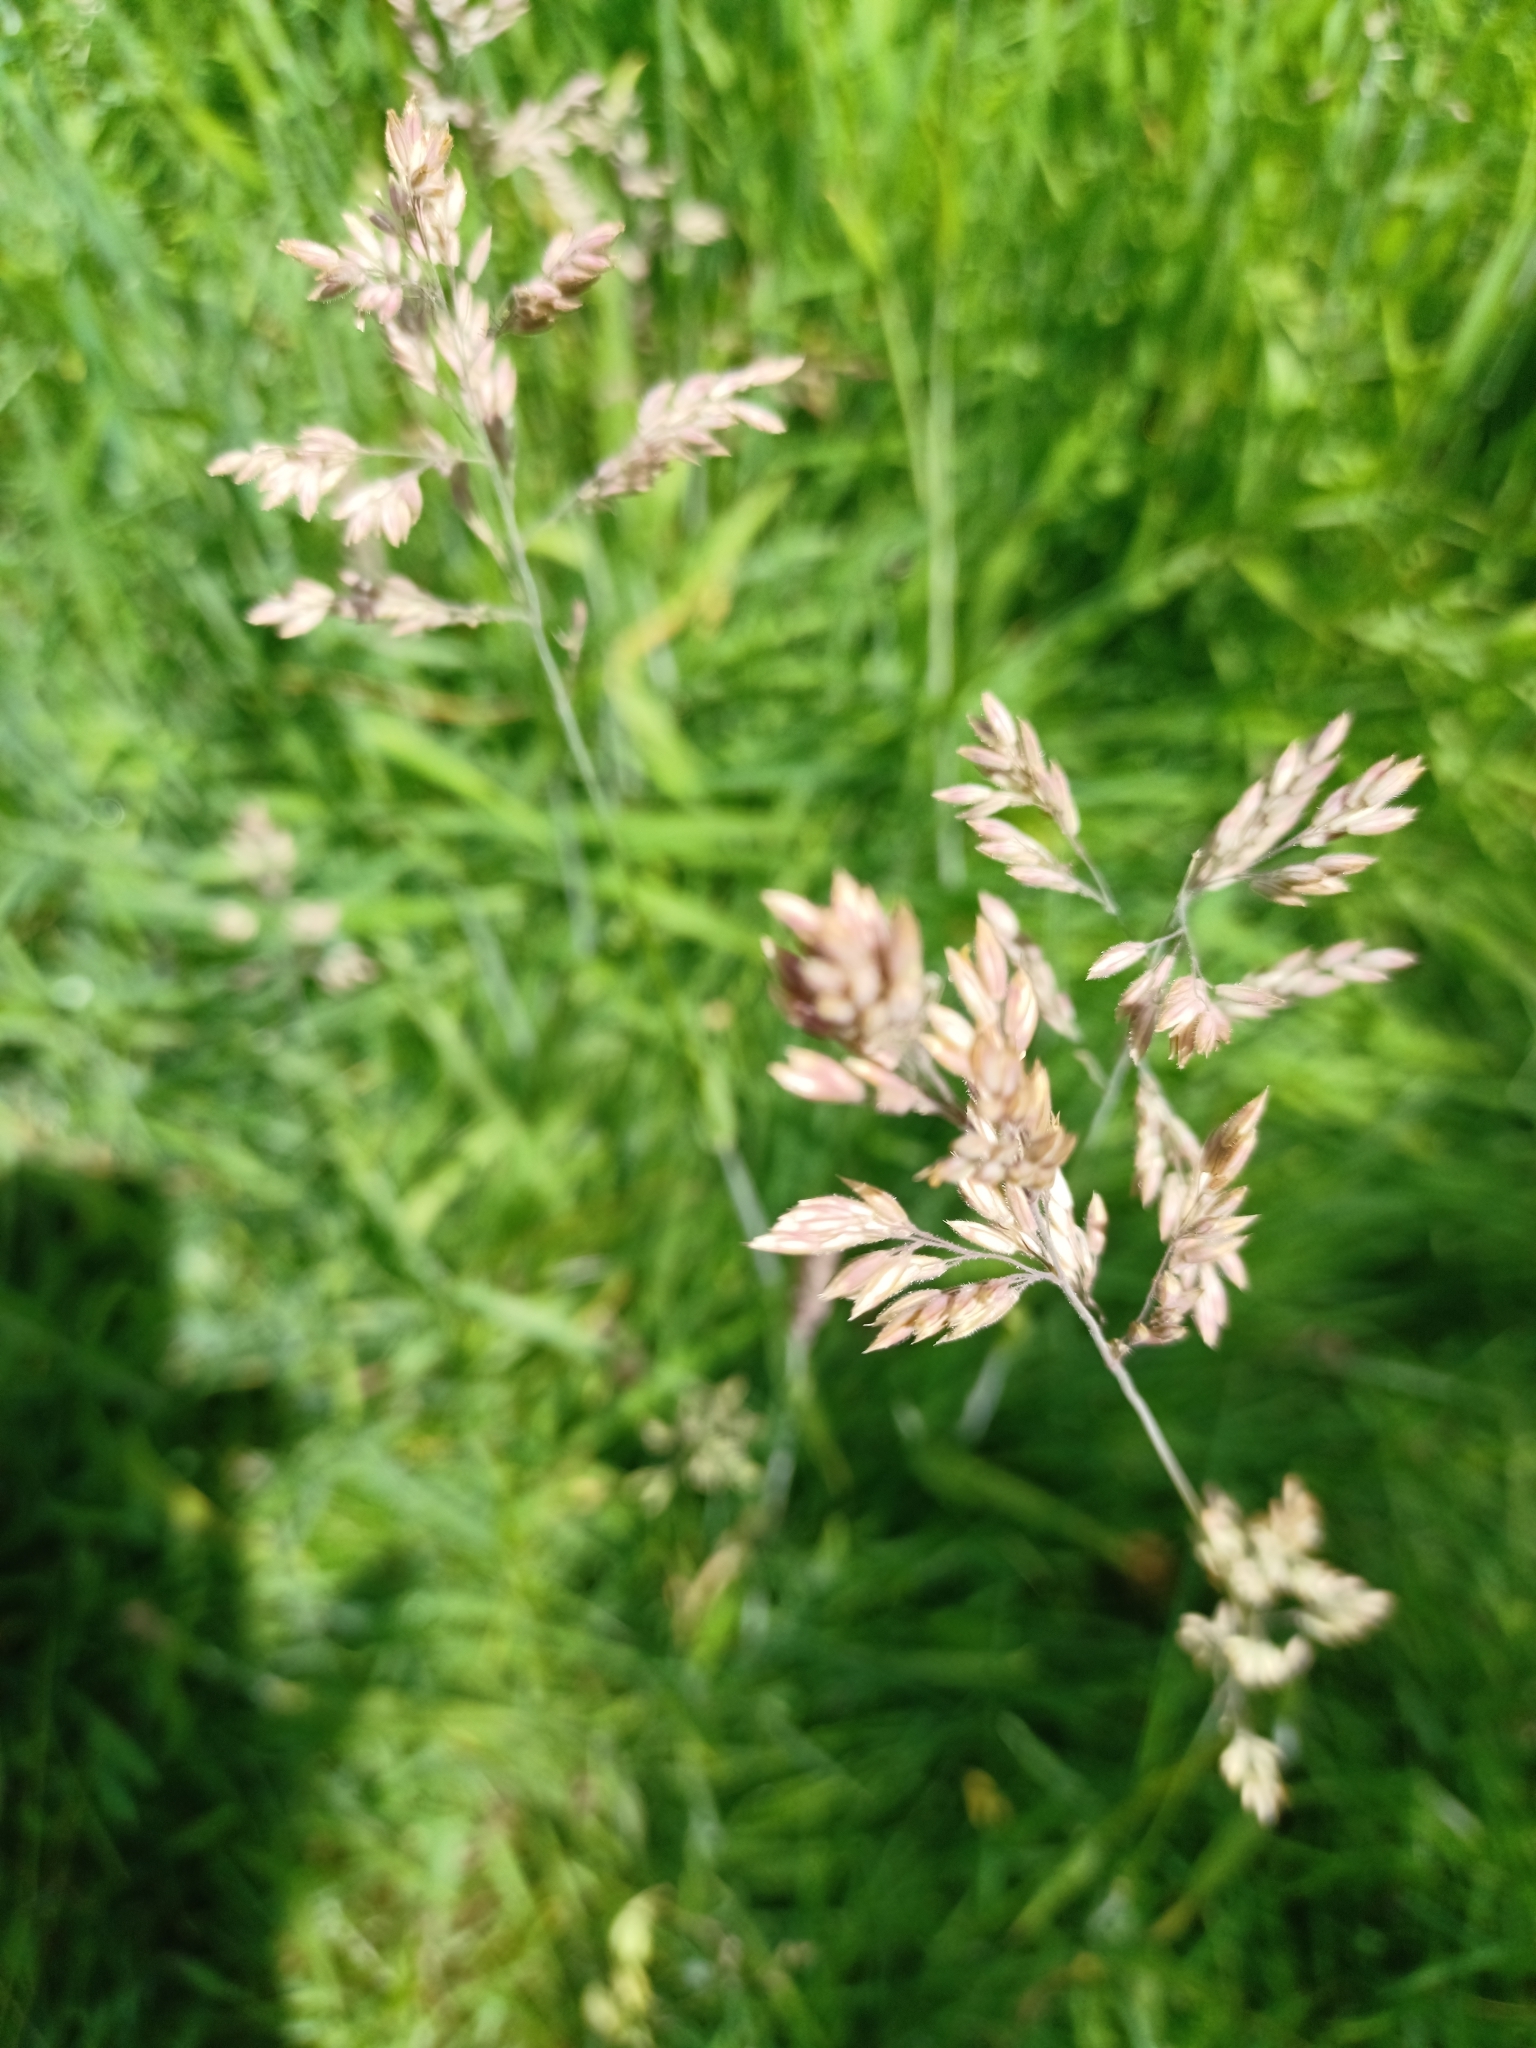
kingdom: Plantae
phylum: Tracheophyta
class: Liliopsida
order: Poales
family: Poaceae
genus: Holcus
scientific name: Holcus lanatus
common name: Yorkshire-fog
